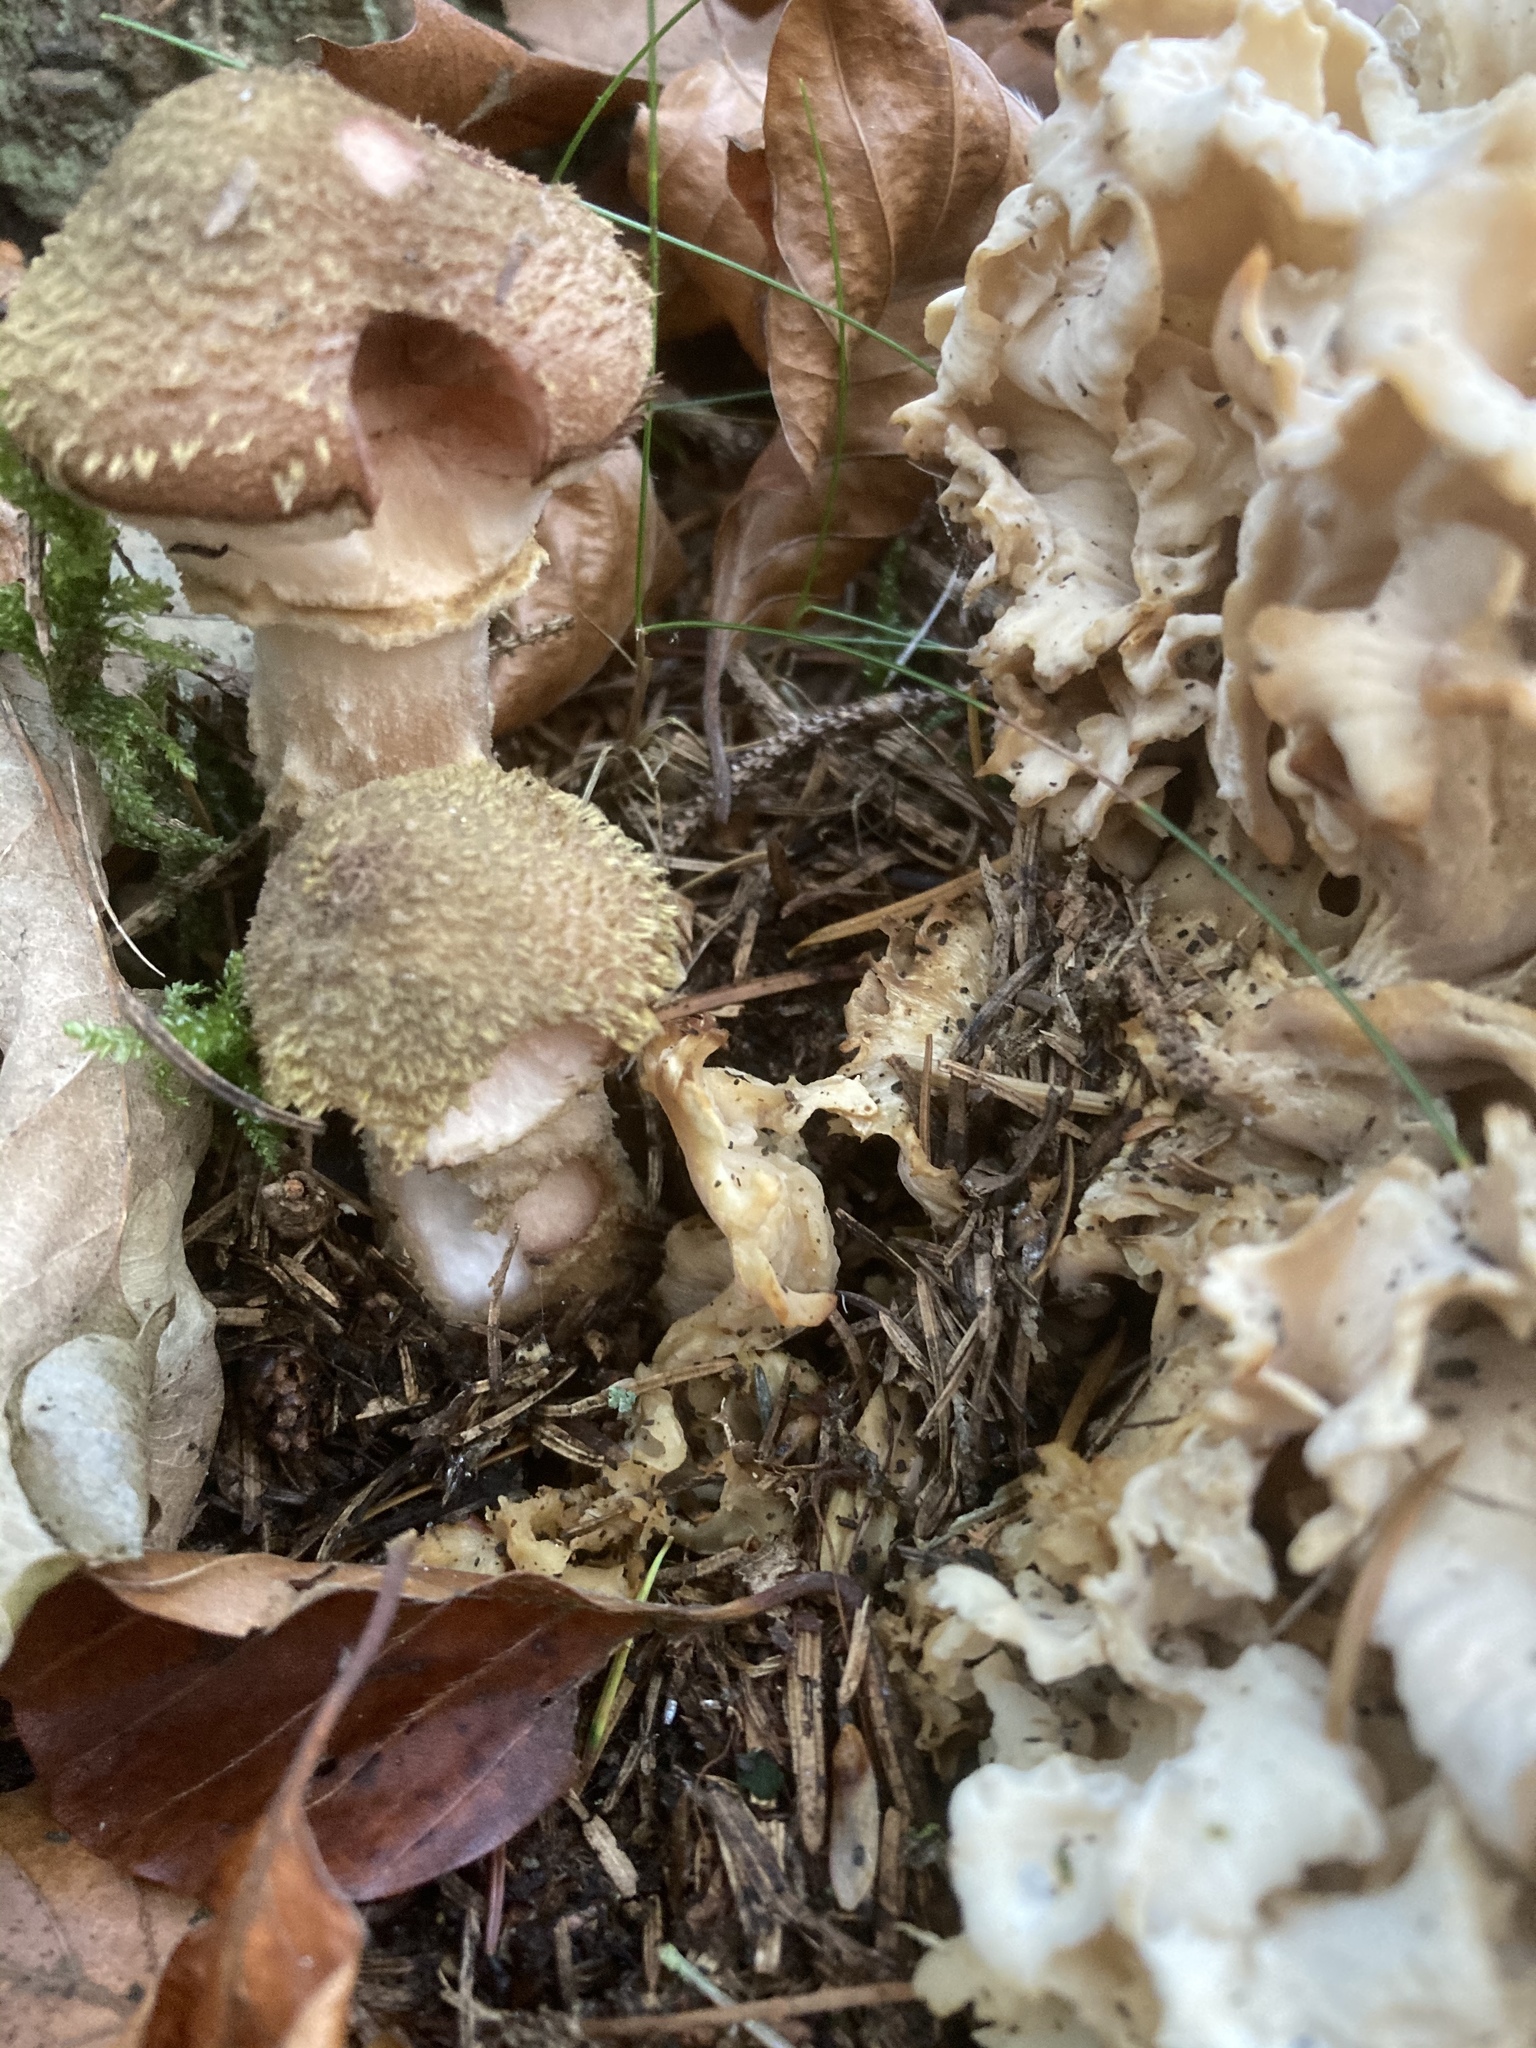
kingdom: Fungi
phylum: Basidiomycota
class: Agaricomycetes
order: Agaricales
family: Amanitaceae
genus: Amanita
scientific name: Amanita rubescens
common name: Blusher
